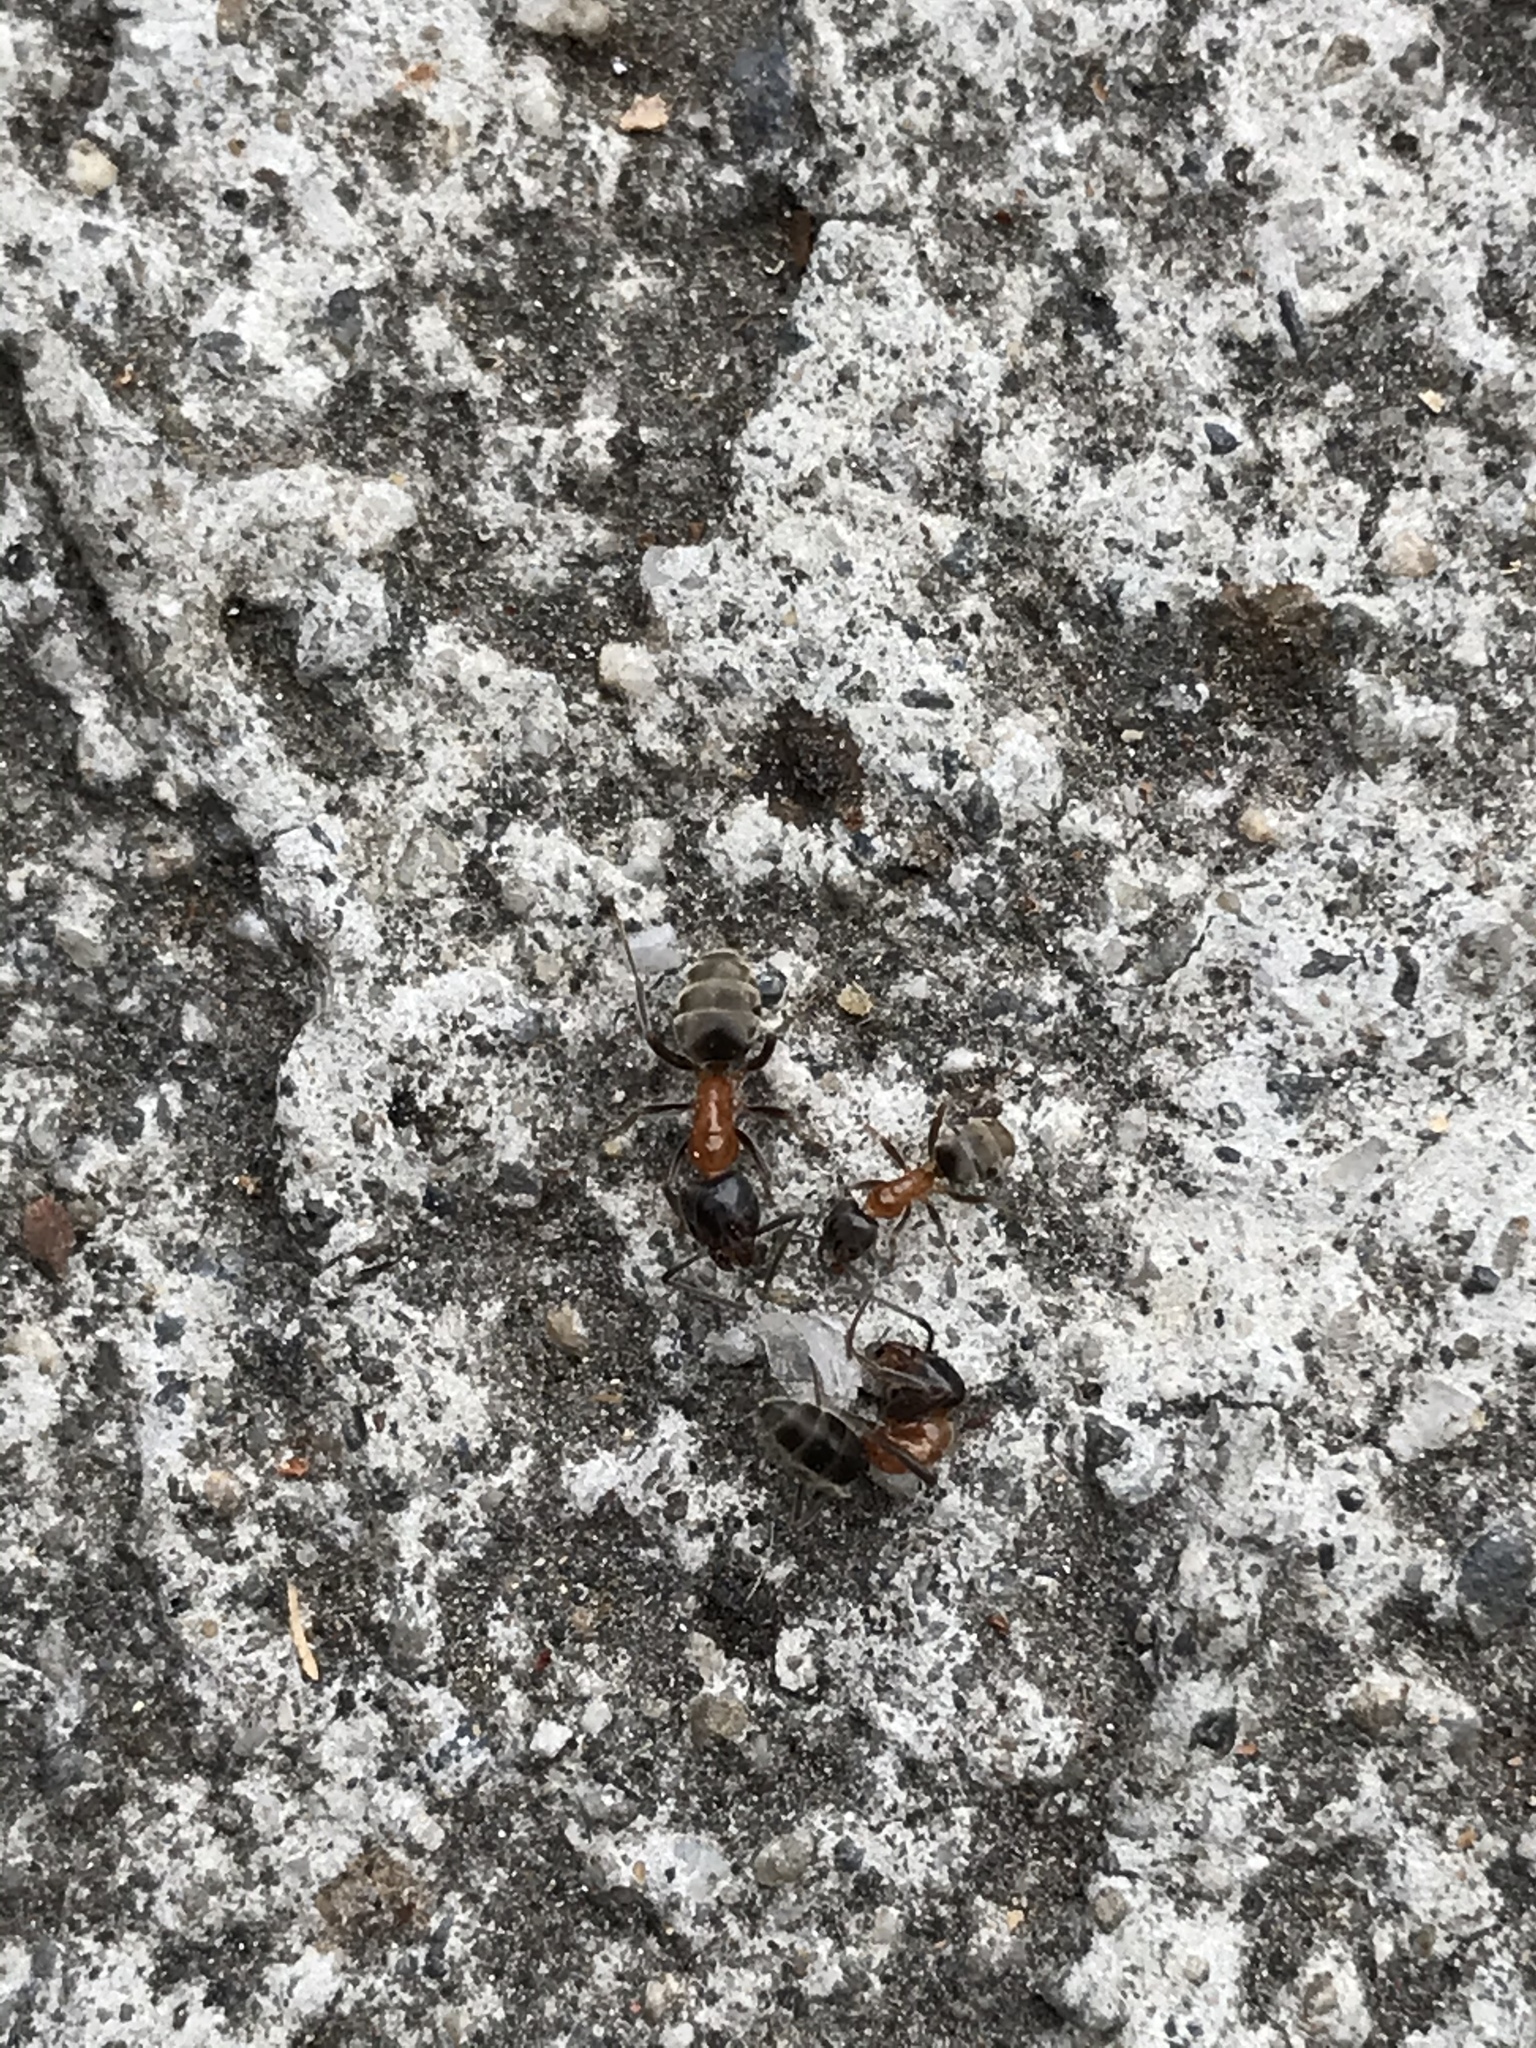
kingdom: Animalia
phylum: Arthropoda
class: Insecta
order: Hymenoptera
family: Formicidae
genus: Liometopum
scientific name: Liometopum occidentale
